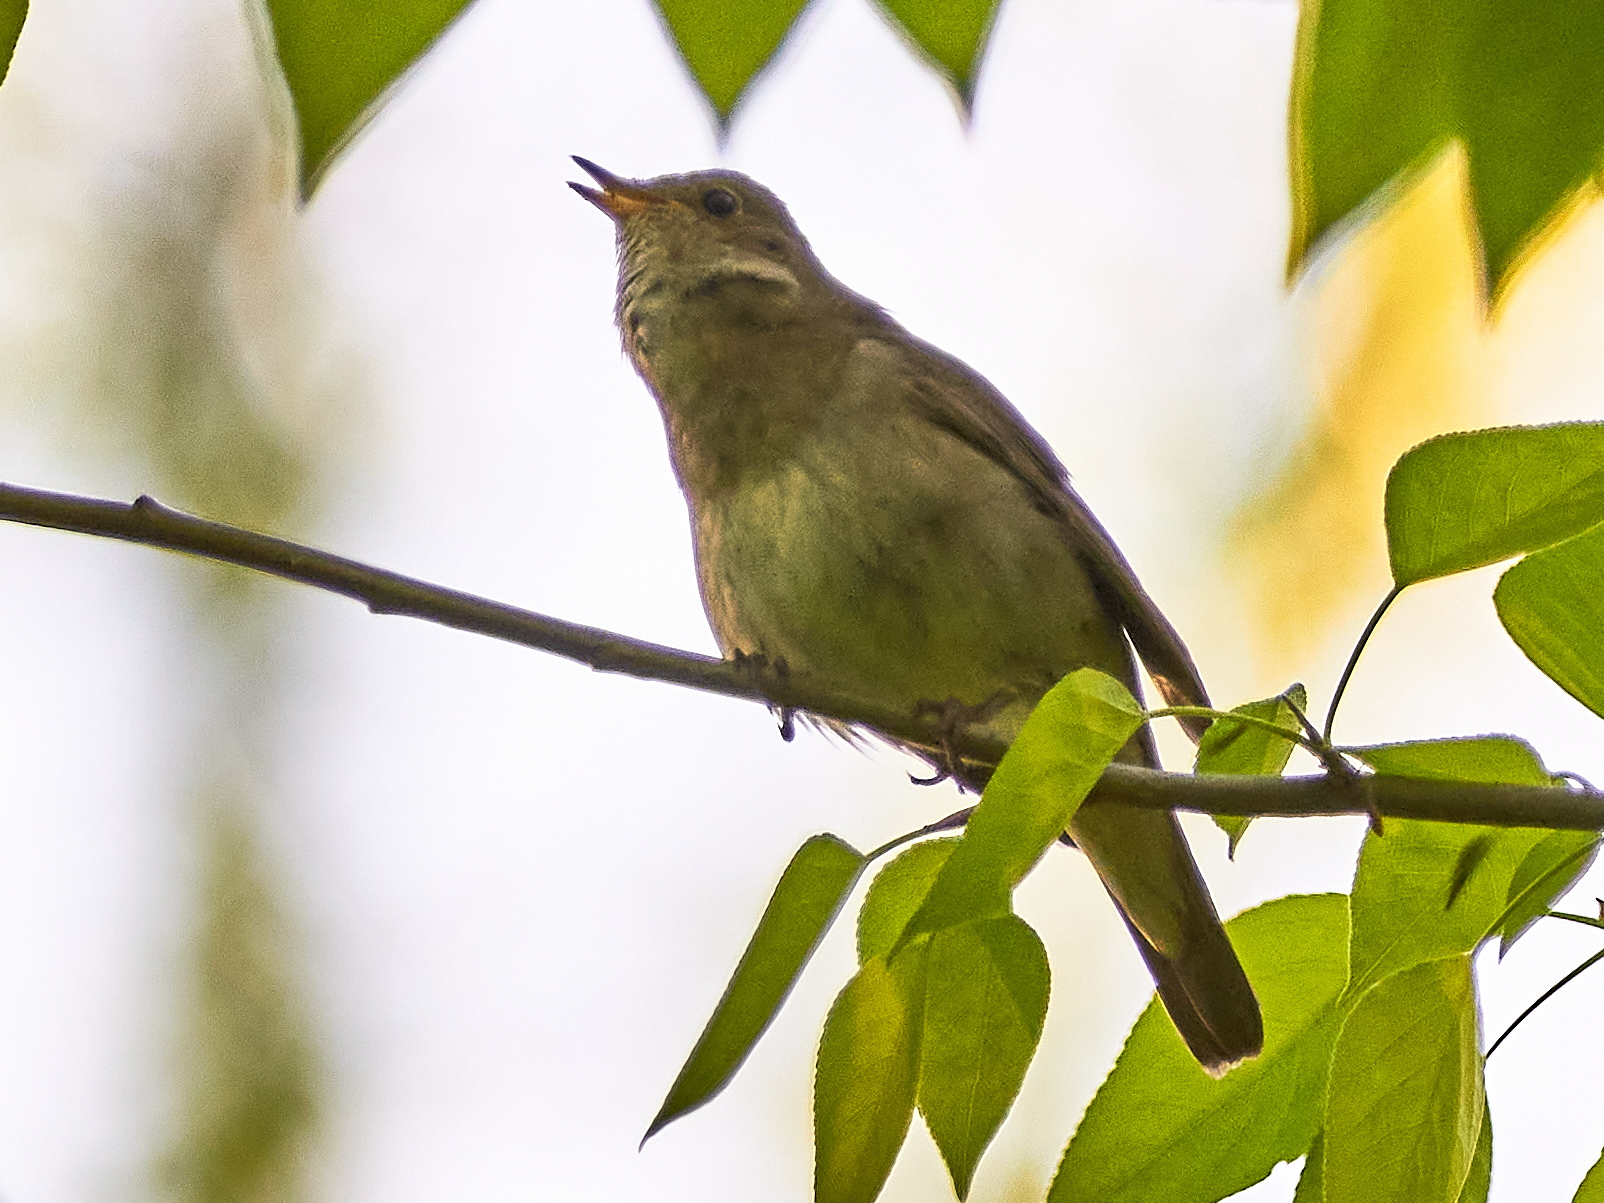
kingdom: Animalia
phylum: Chordata
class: Aves
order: Passeriformes
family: Muscicapidae
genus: Luscinia
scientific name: Luscinia luscinia
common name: Thrush nightingale
